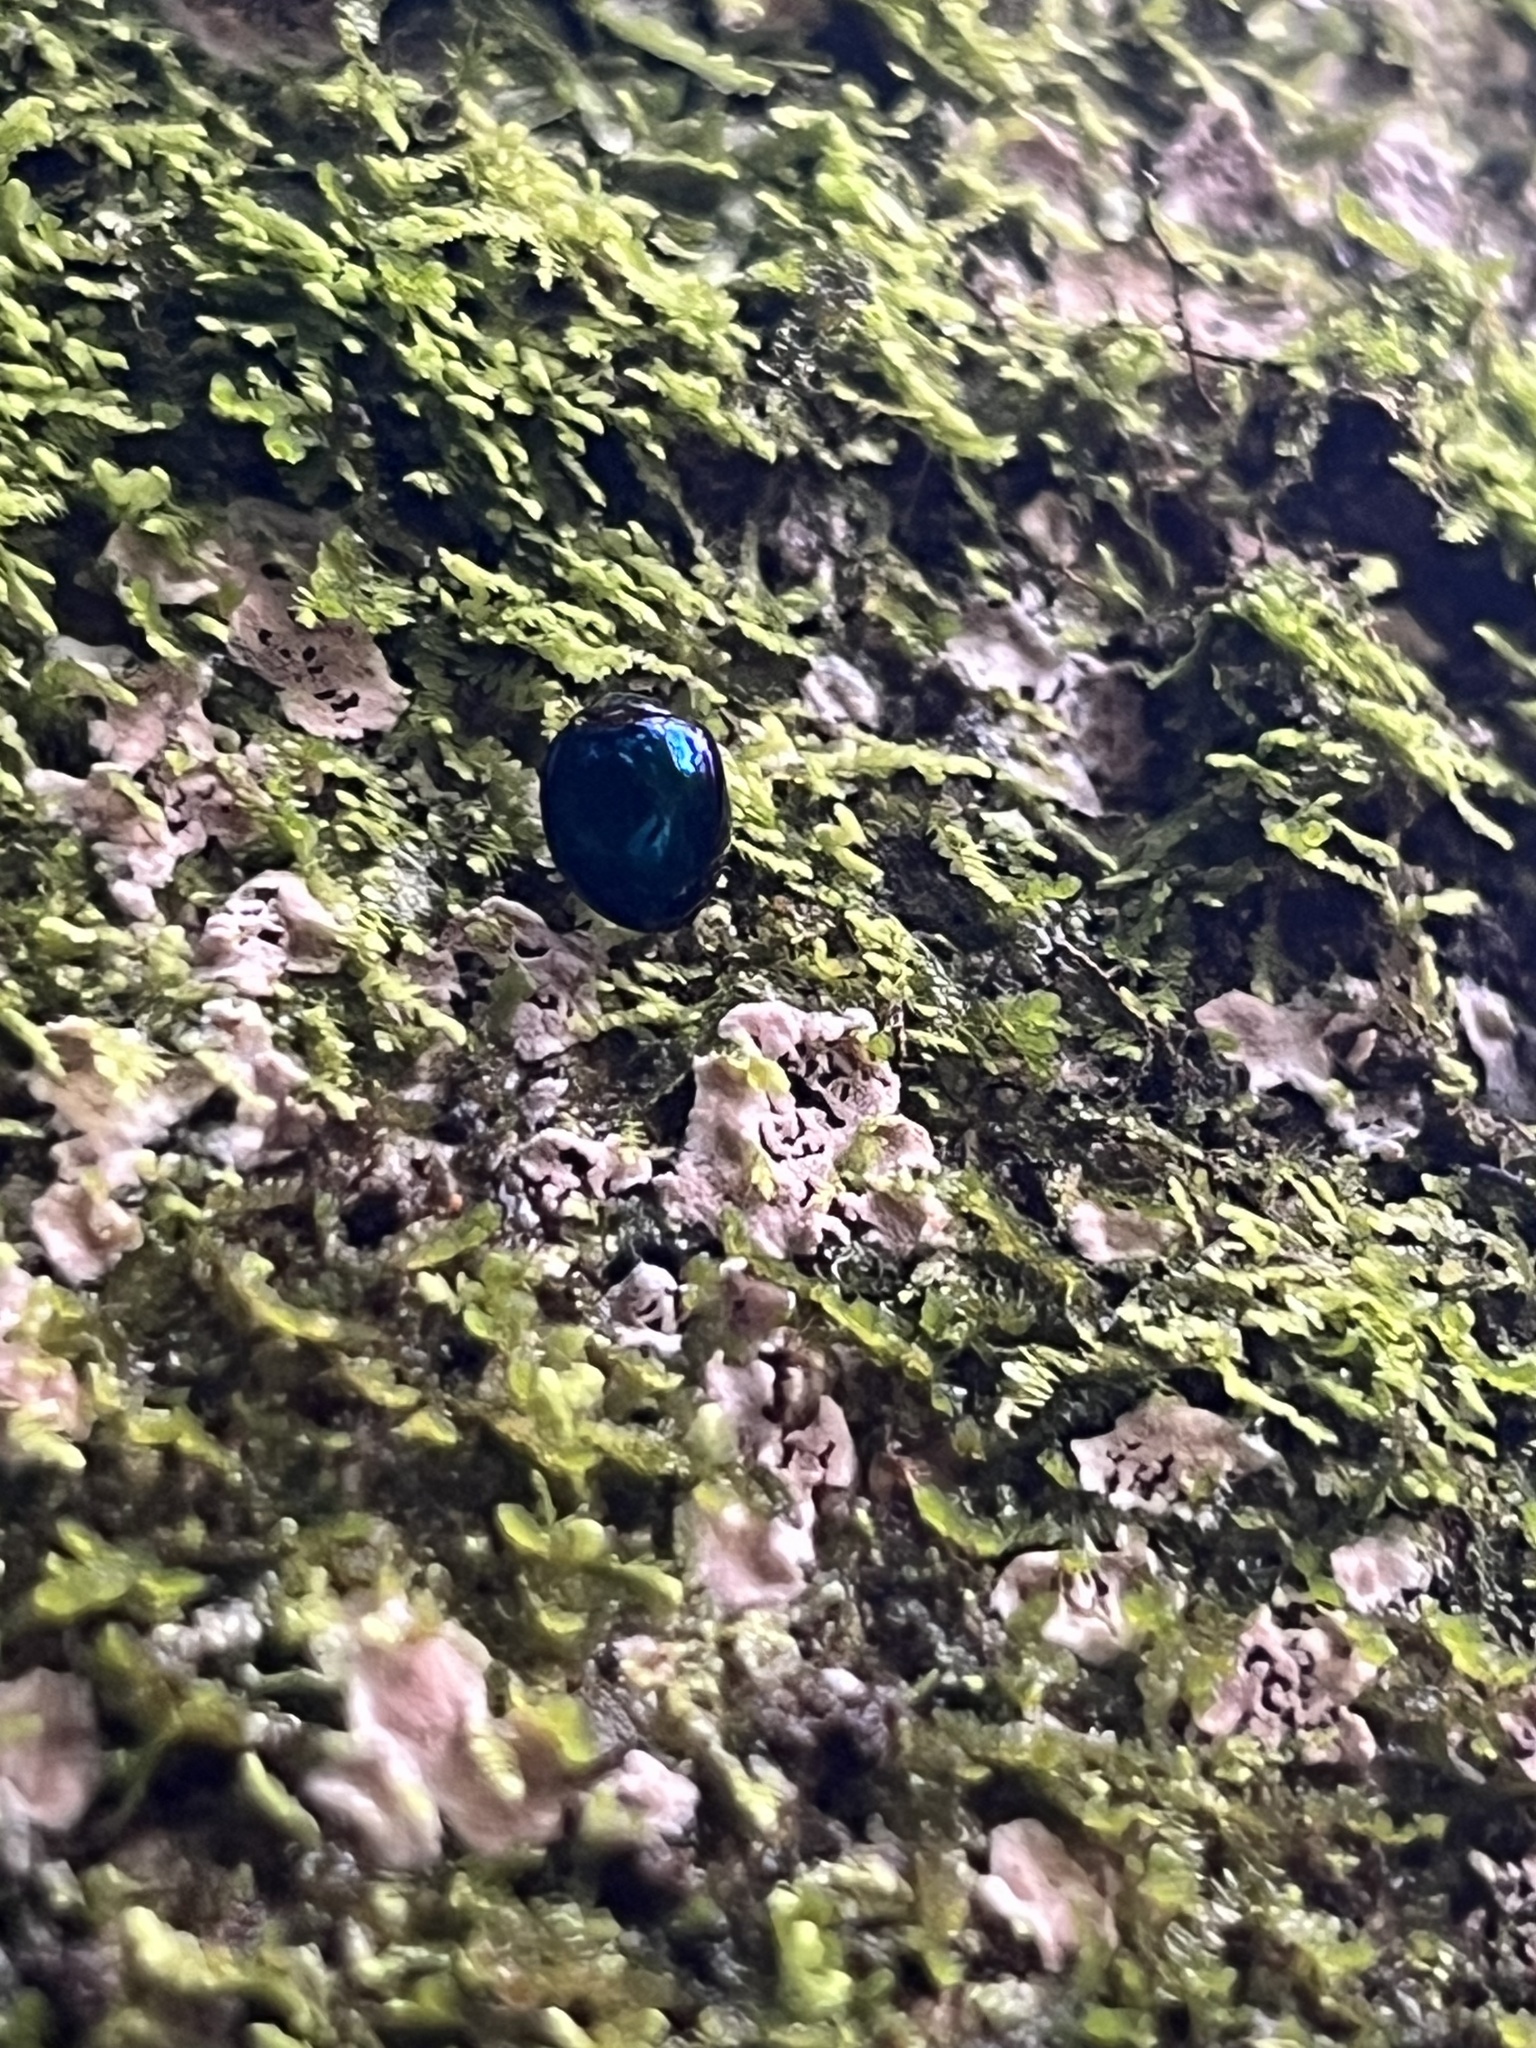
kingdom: Animalia
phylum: Arthropoda
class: Insecta
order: Coleoptera
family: Coccinellidae
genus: Halmus
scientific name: Halmus chalybeus
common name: Steel blue ladybird beetle
